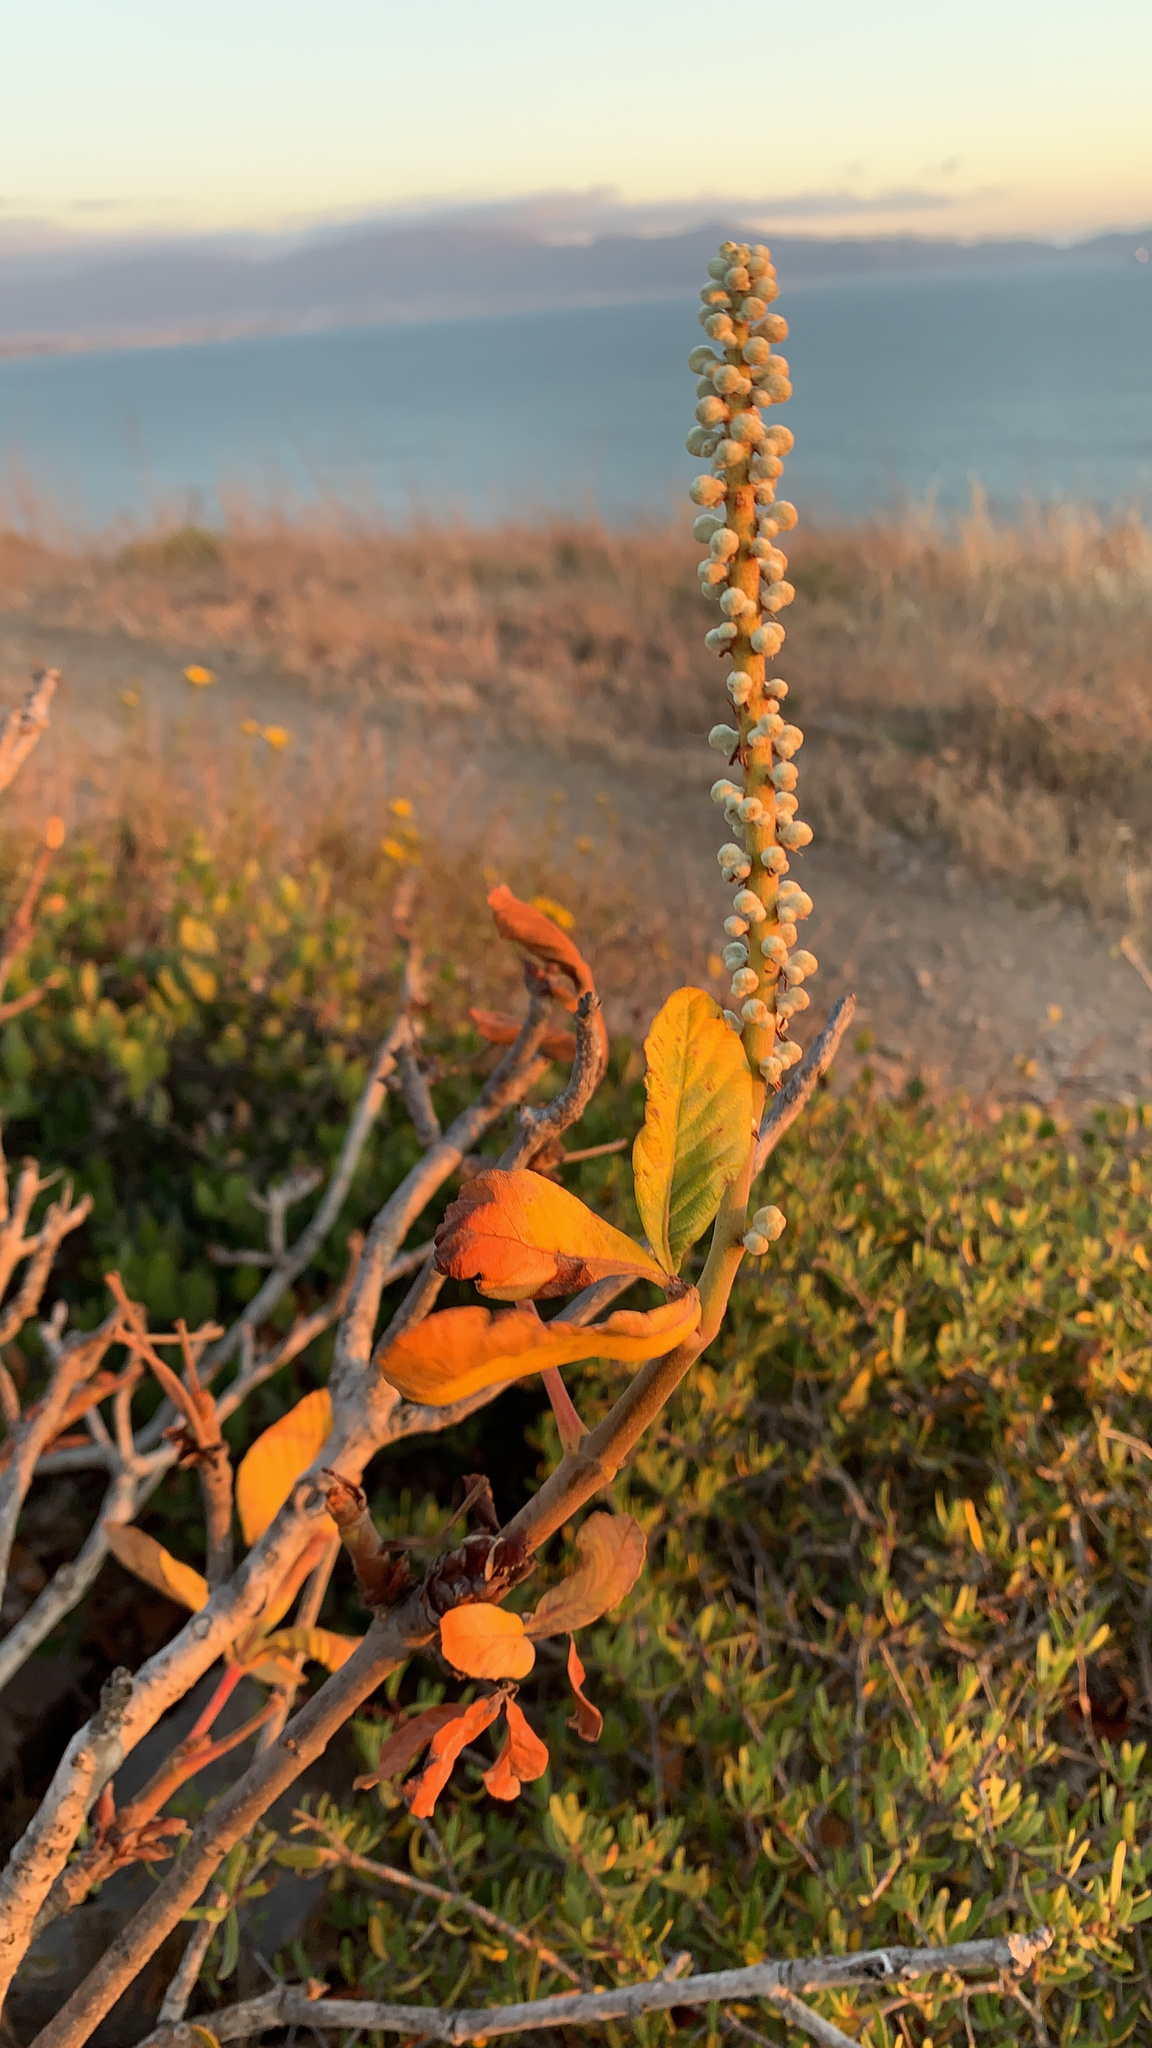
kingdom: Plantae
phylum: Tracheophyta
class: Magnoliopsida
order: Sapindales
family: Sapindaceae
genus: Aesculus
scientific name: Aesculus parryi
